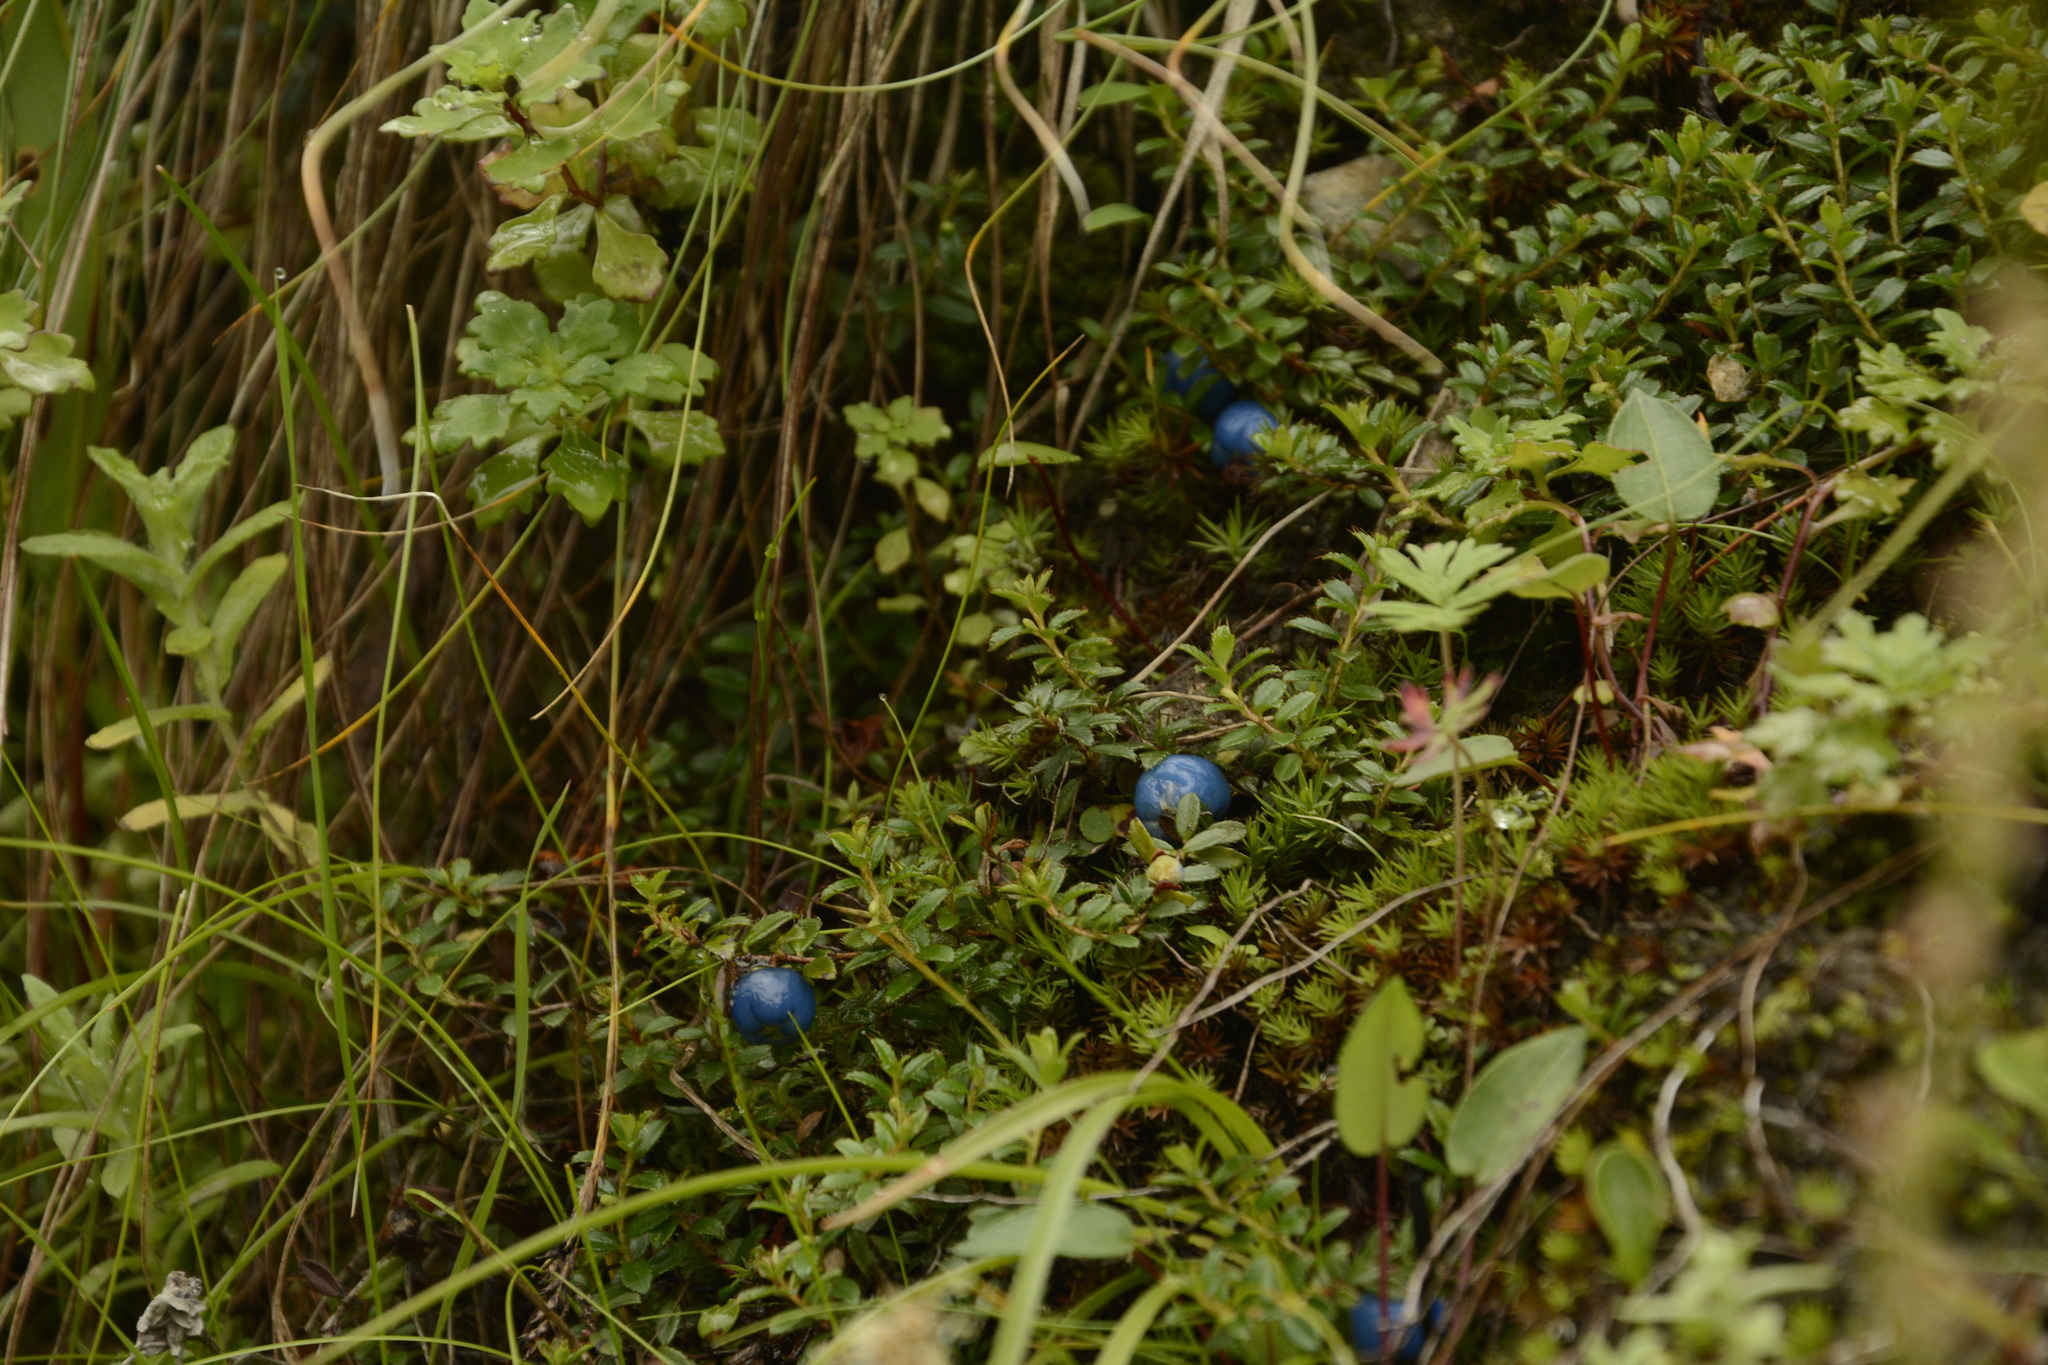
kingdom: Plantae
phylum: Tracheophyta
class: Magnoliopsida
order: Ericales
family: Ericaceae
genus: Gaultheria
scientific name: Gaultheria trichophylla
